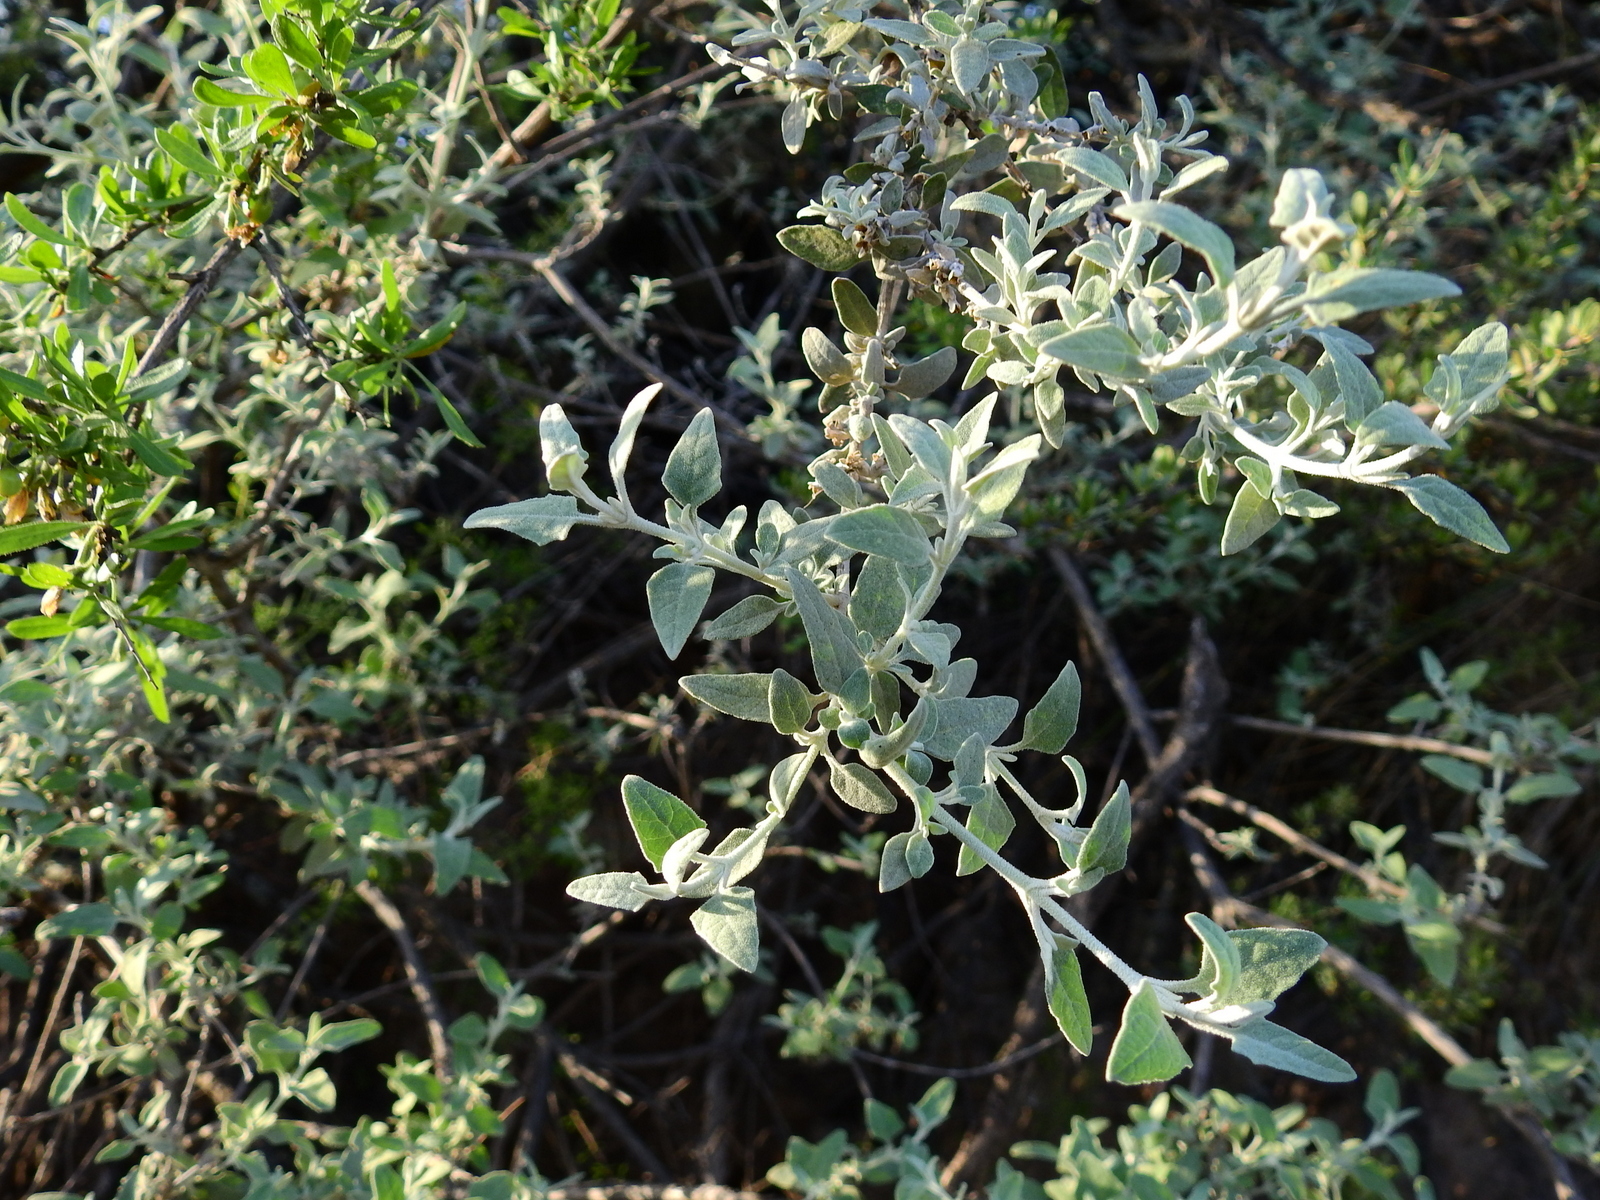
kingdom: Plantae
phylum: Tracheophyta
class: Magnoliopsida
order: Lamiales
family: Scrophulariaceae
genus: Buddleja
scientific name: Buddleja mendozensis
